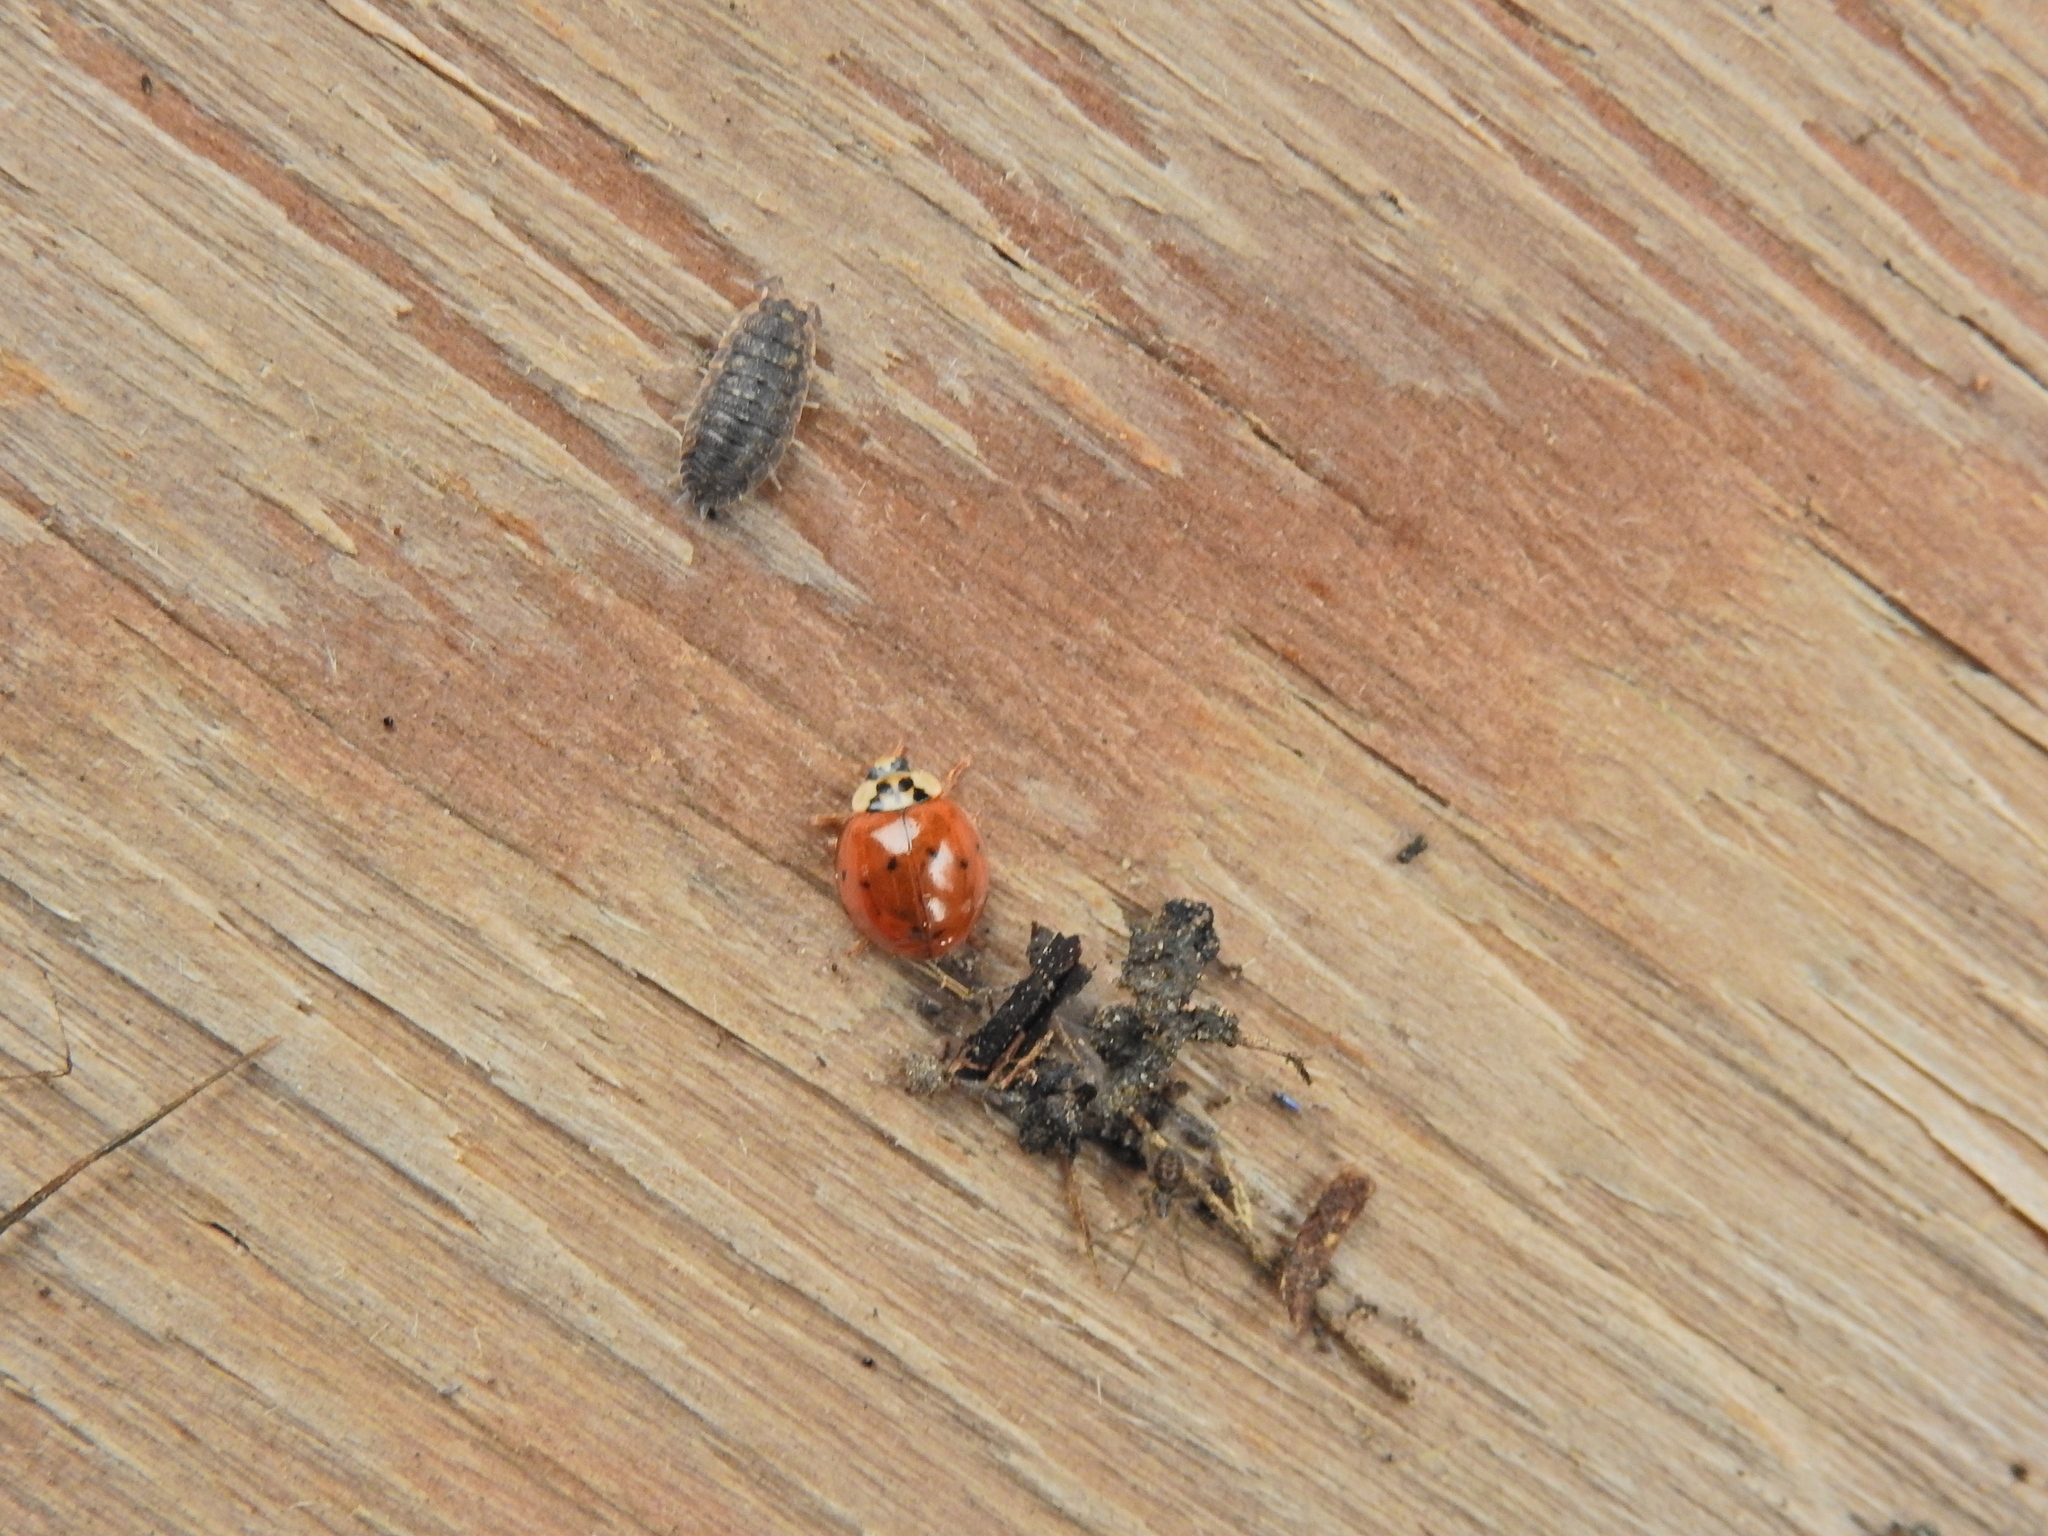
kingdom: Animalia
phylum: Arthropoda
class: Insecta
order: Coleoptera
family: Coccinellidae
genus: Harmonia
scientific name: Harmonia axyridis
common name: Harlequin ladybird
